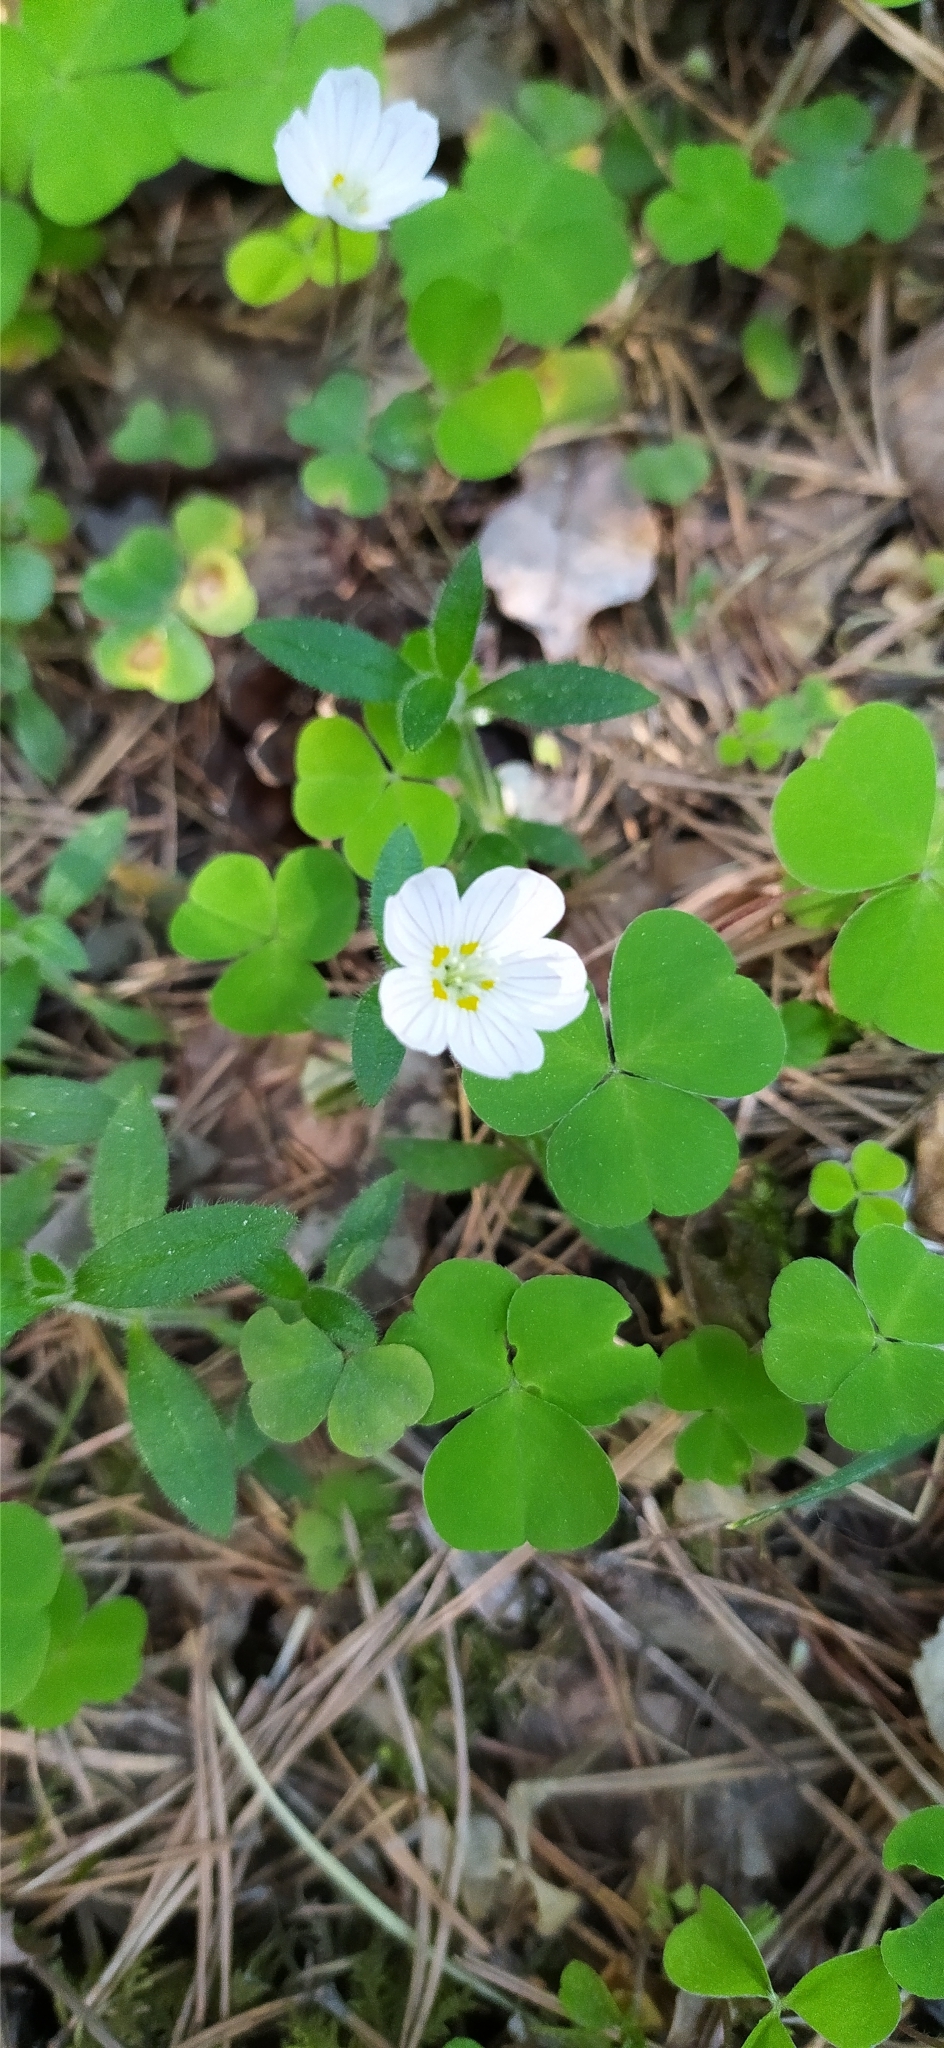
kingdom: Plantae
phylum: Tracheophyta
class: Magnoliopsida
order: Oxalidales
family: Oxalidaceae
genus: Oxalis
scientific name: Oxalis acetosella
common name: Wood-sorrel
